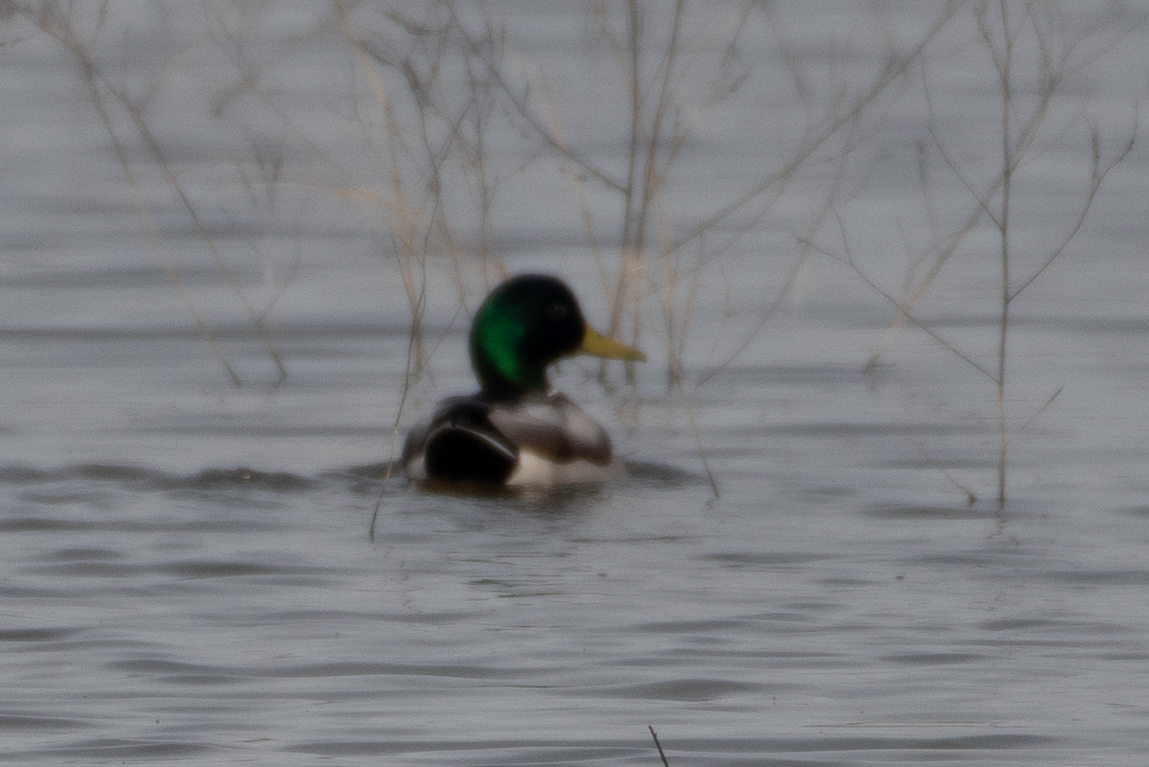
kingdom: Animalia
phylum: Chordata
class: Aves
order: Anseriformes
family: Anatidae
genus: Anas
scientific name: Anas platyrhynchos
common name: Mallard
